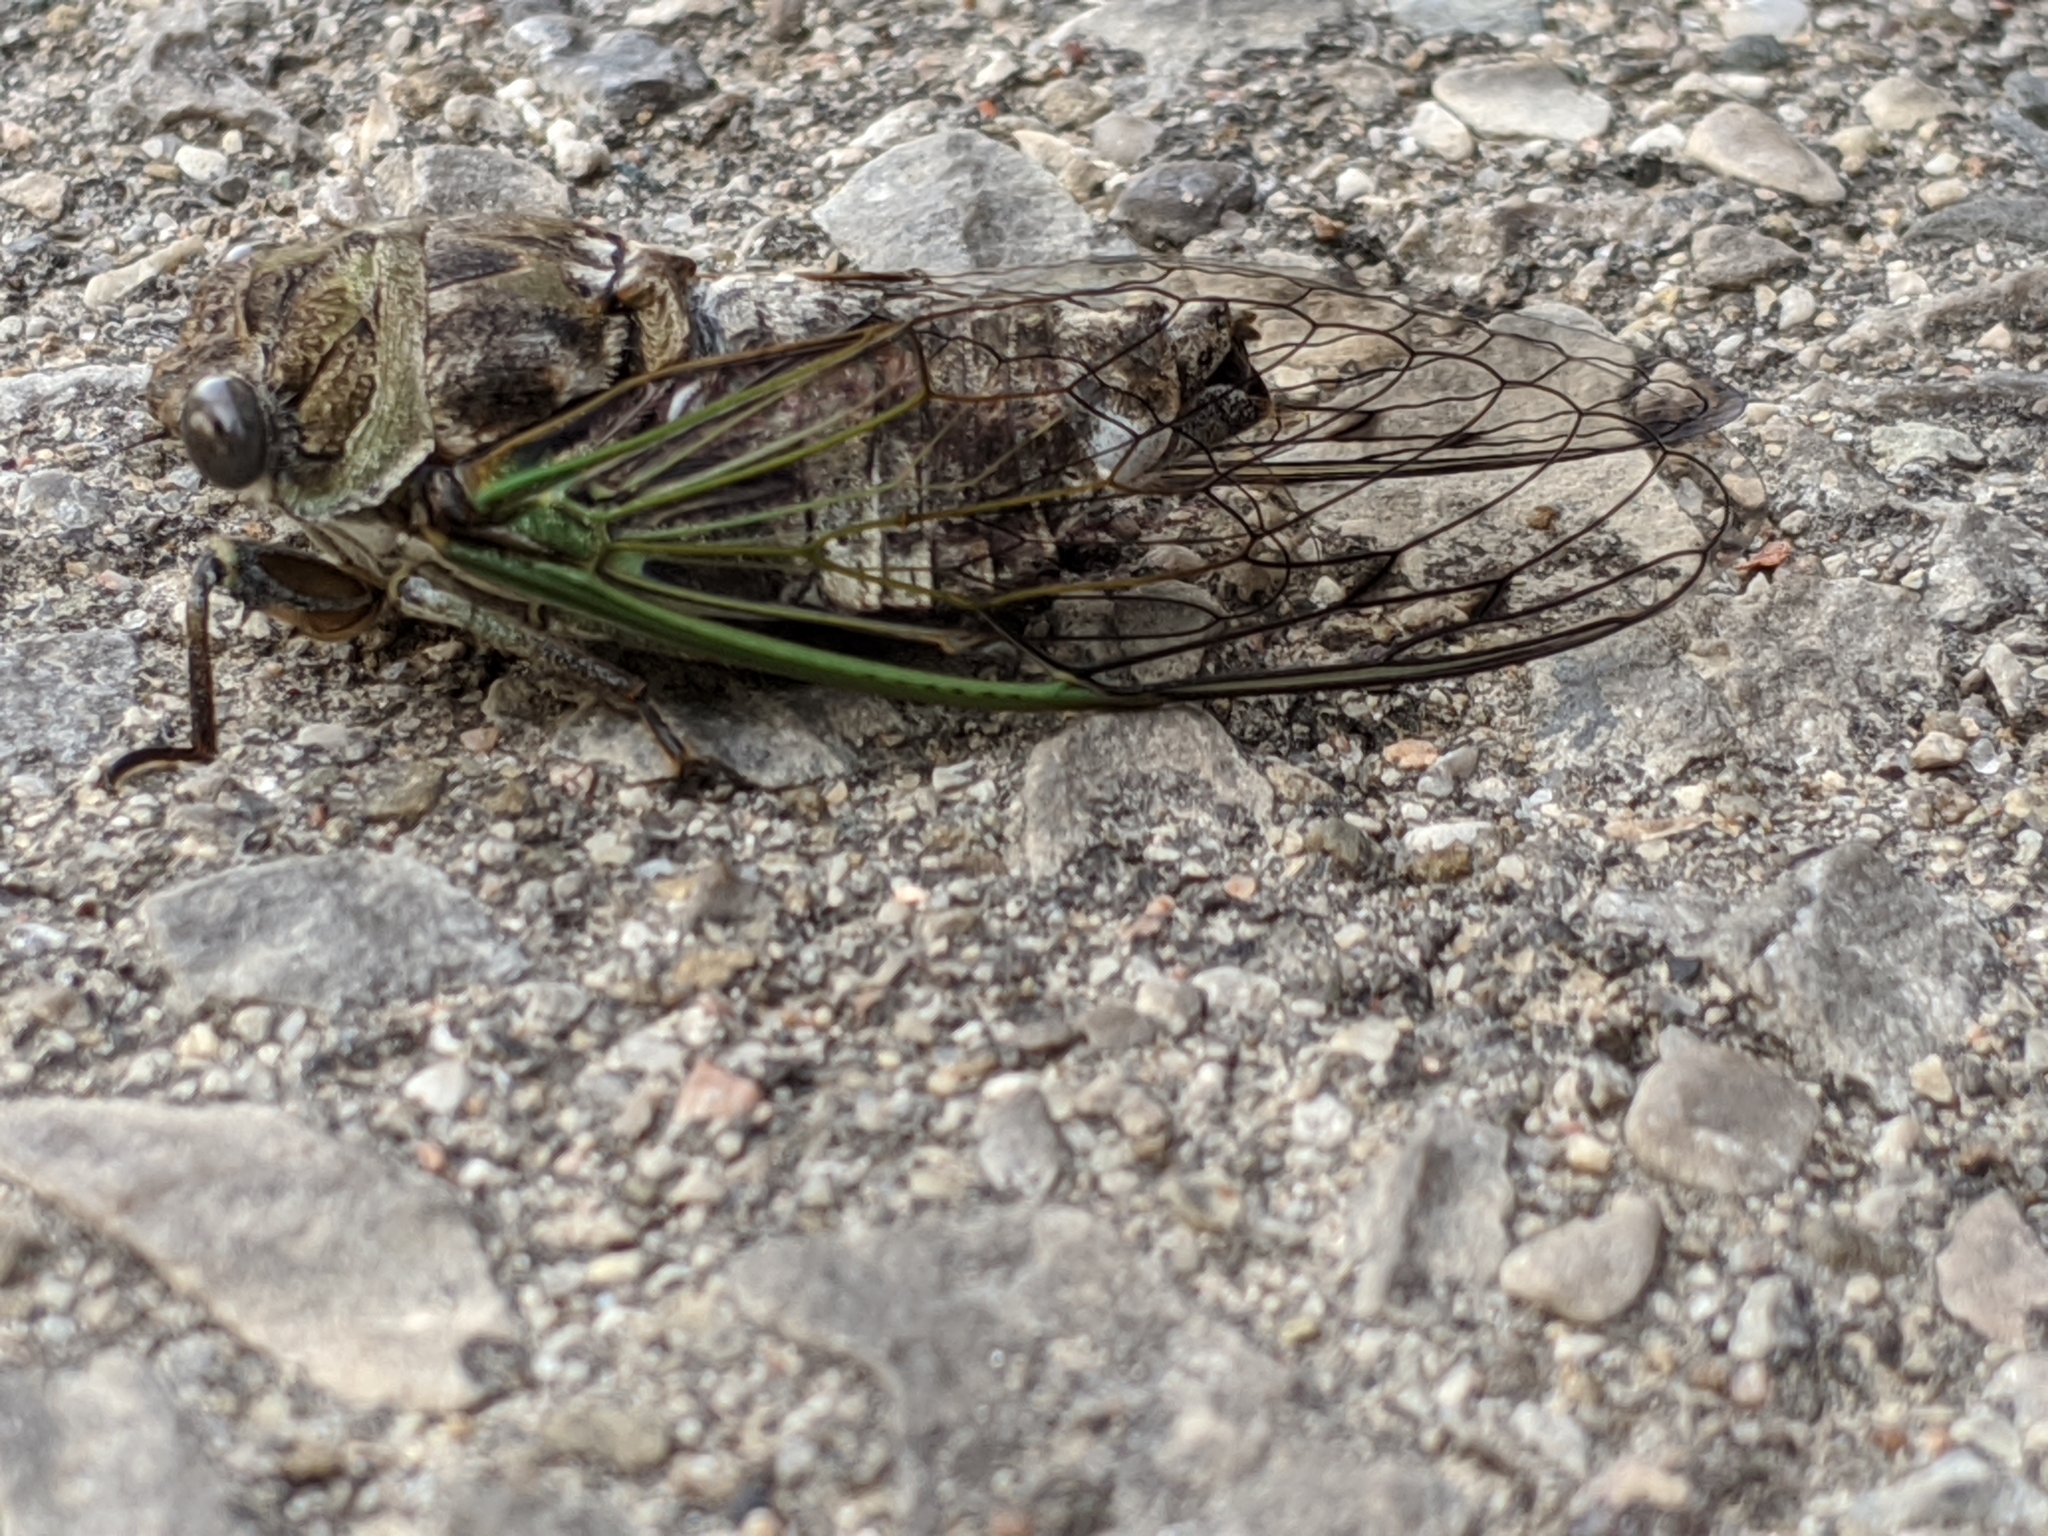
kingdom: Animalia
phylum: Arthropoda
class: Insecta
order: Hemiptera
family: Cicadidae
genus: Neotibicen
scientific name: Neotibicen canicularis
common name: God-day cicada
